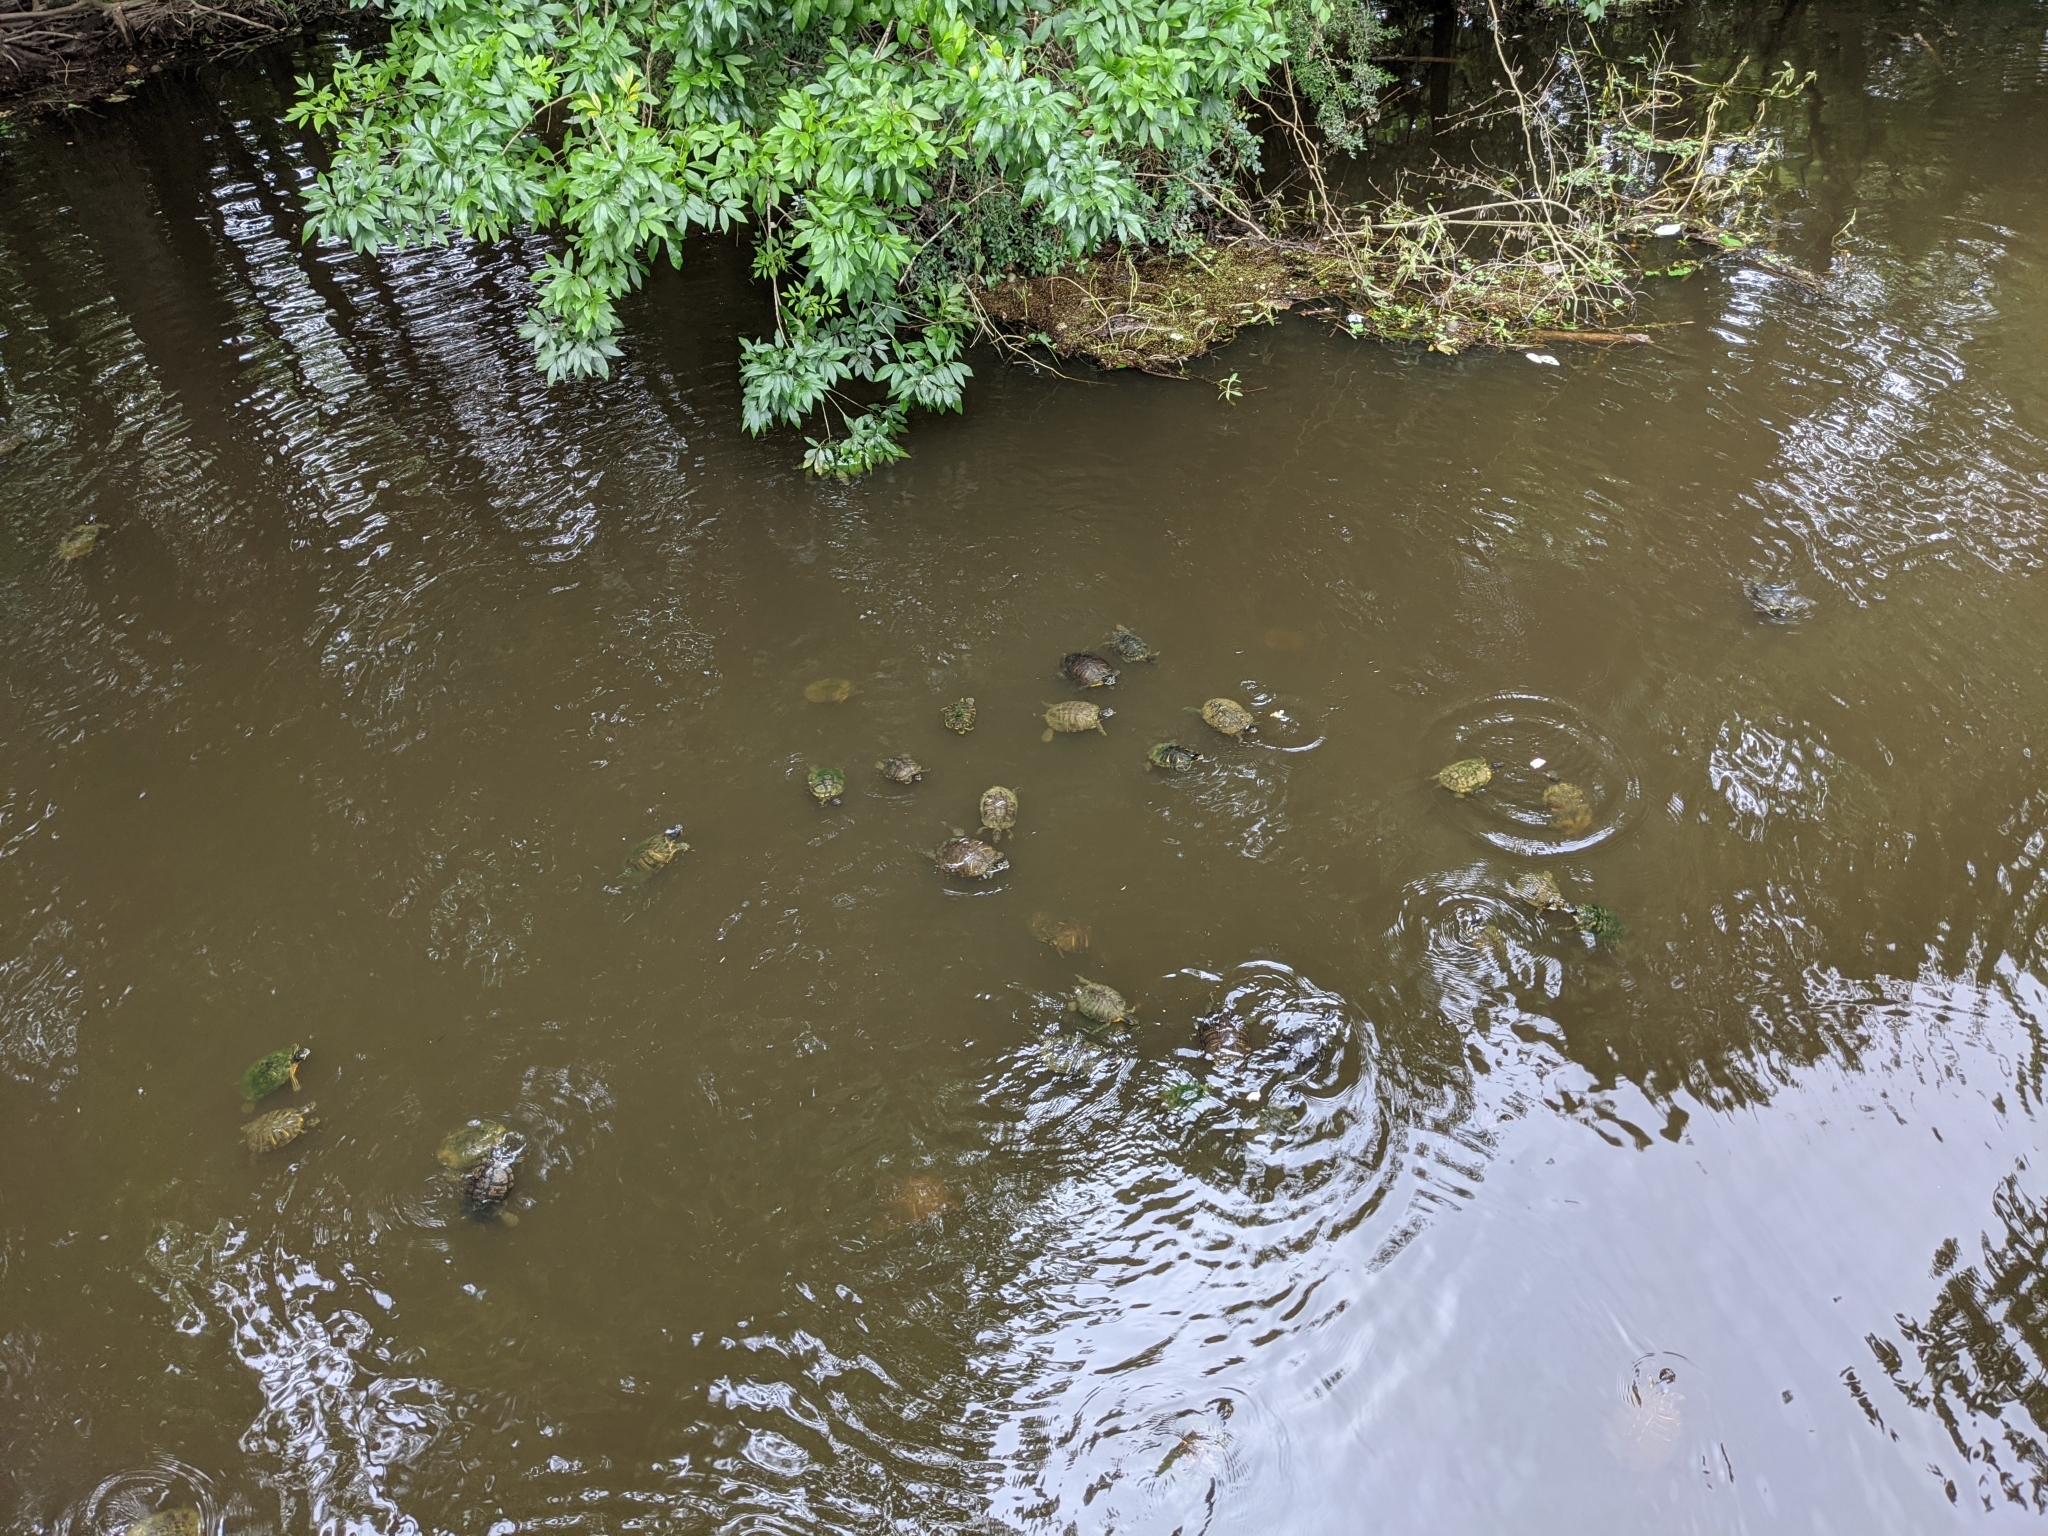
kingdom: Animalia
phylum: Chordata
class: Testudines
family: Emydidae
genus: Trachemys
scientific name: Trachemys scripta
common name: Slider
